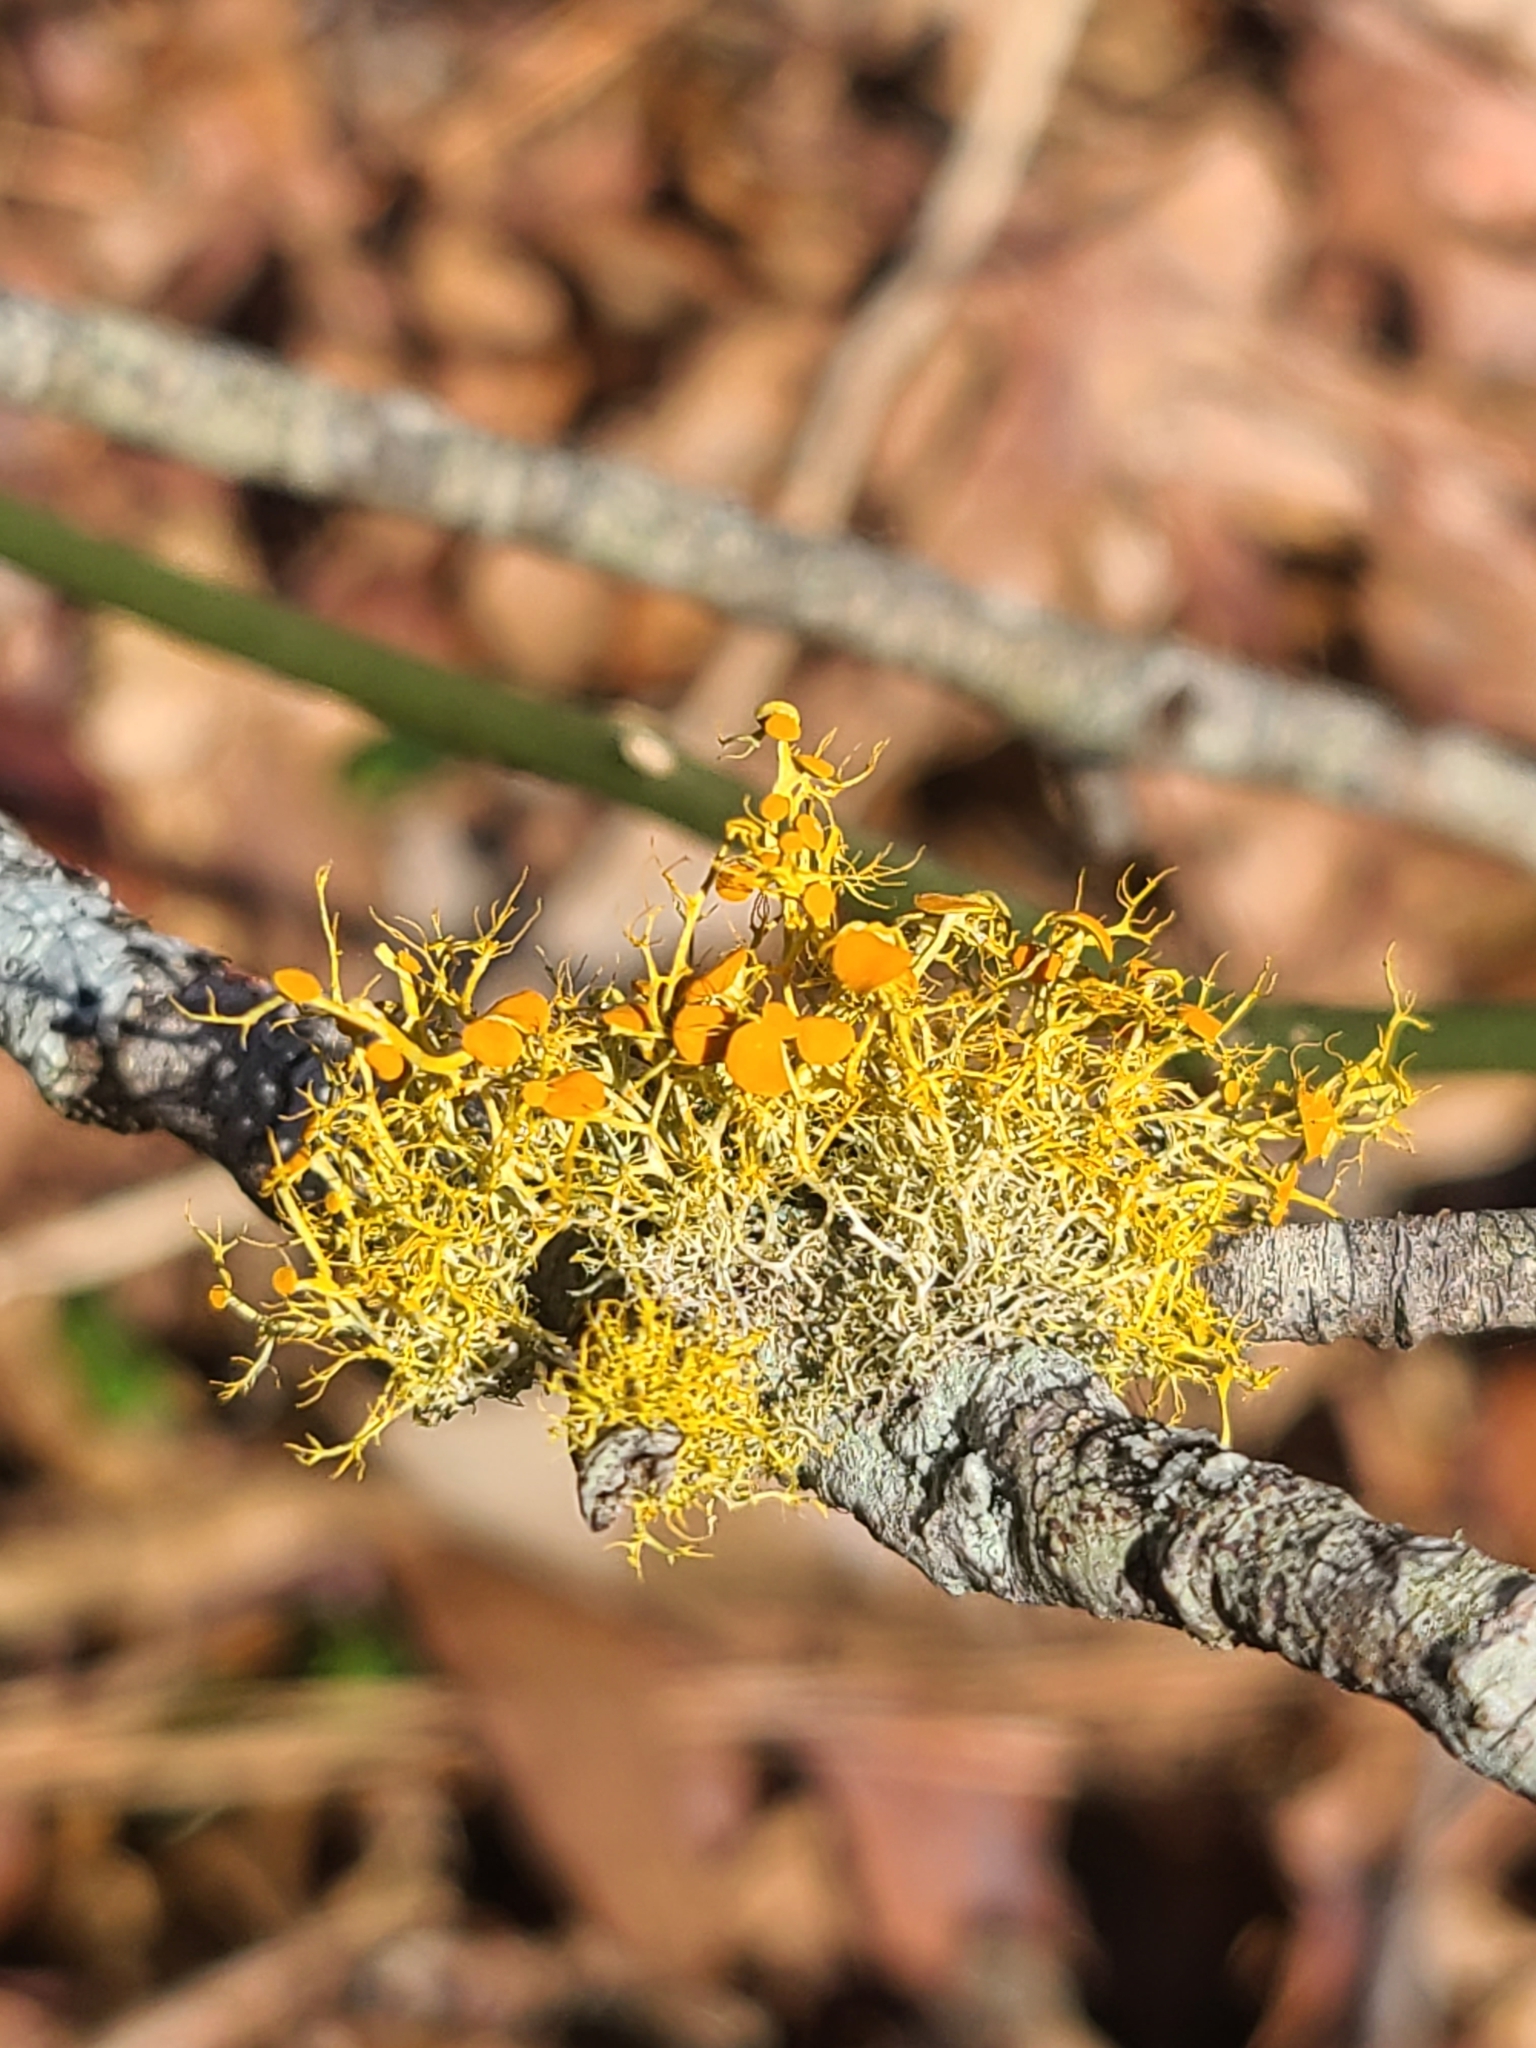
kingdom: Fungi
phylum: Ascomycota
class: Lecanoromycetes
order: Teloschistales
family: Teloschistaceae
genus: Teloschistes
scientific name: Teloschistes exilis
